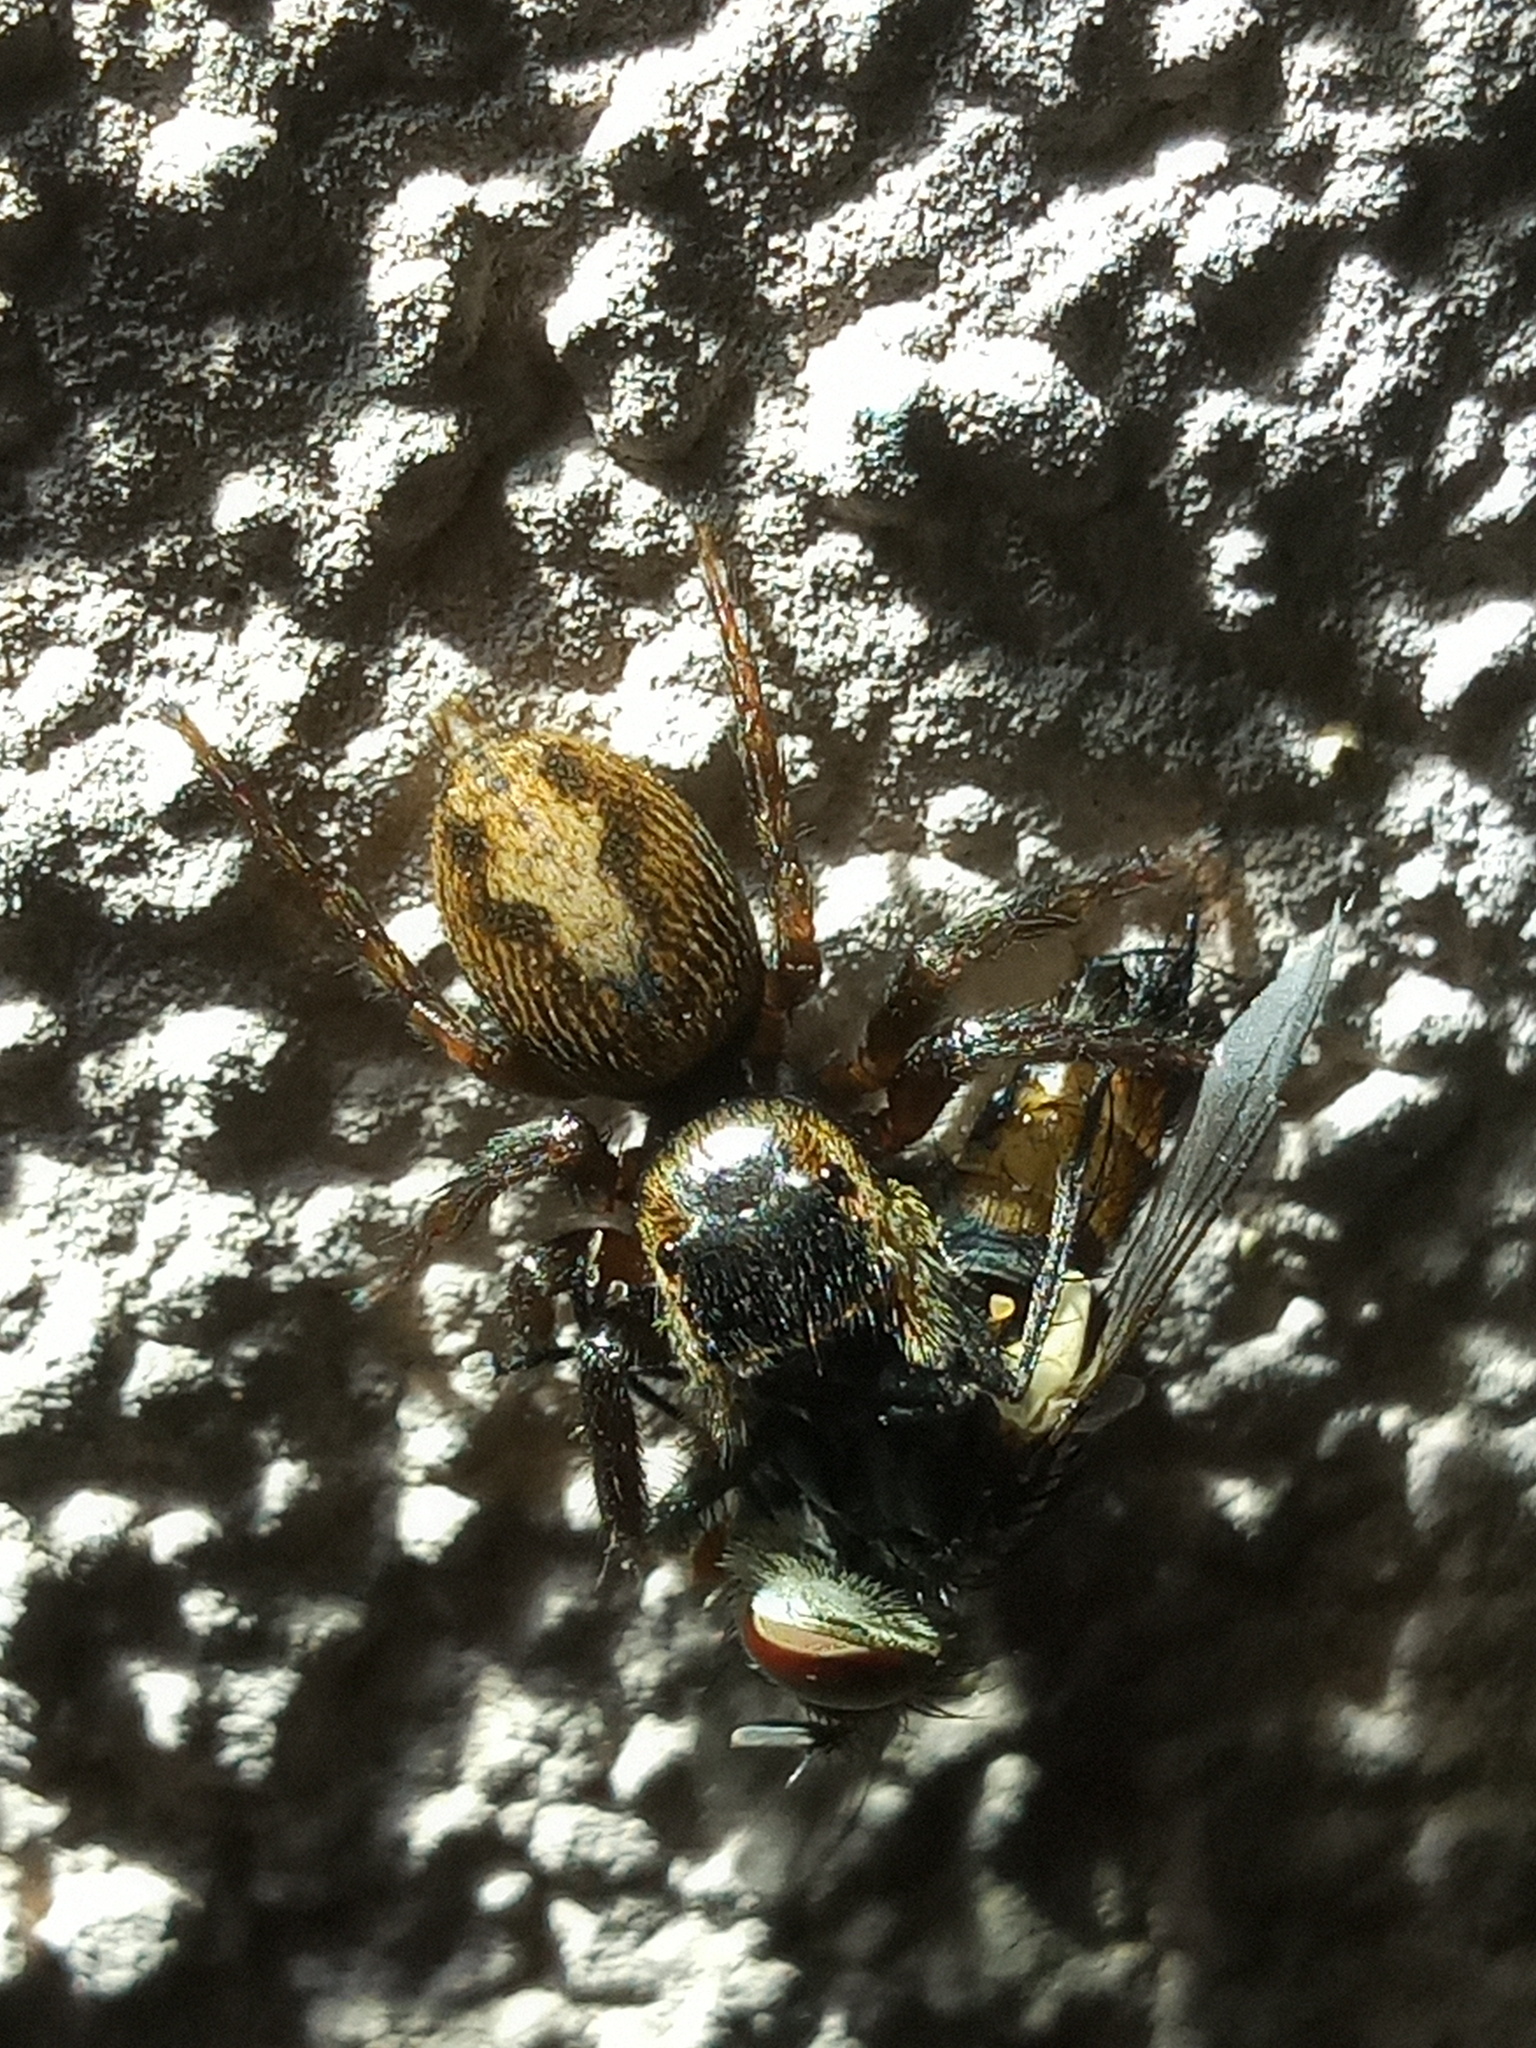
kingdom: Animalia
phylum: Arthropoda
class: Arachnida
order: Araneae
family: Salticidae
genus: Hasarius
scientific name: Hasarius adansoni
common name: Jumping spider
